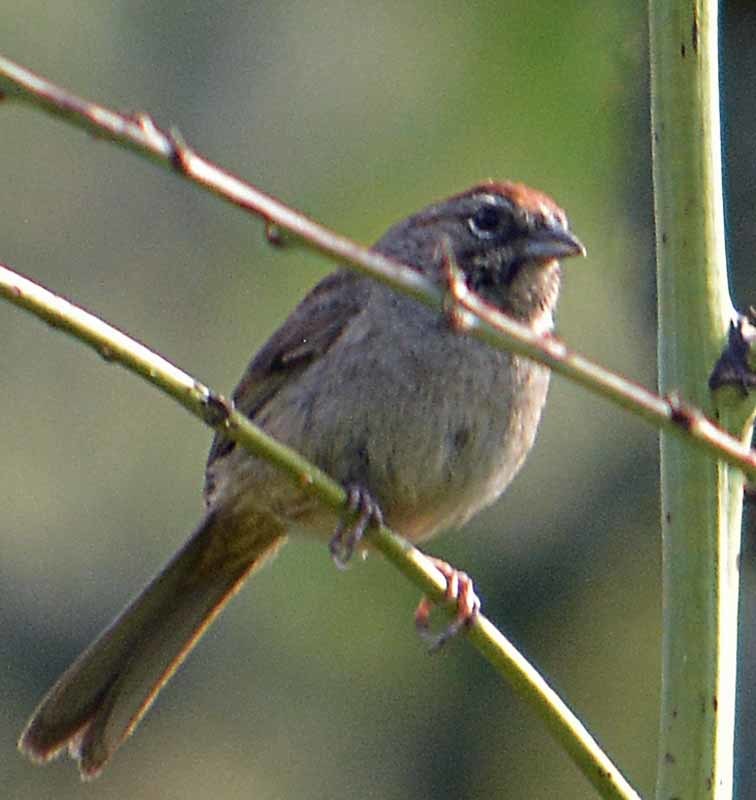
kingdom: Animalia
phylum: Chordata
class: Aves
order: Passeriformes
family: Passerellidae
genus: Aimophila
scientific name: Aimophila ruficeps
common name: Rufous-crowned sparrow
